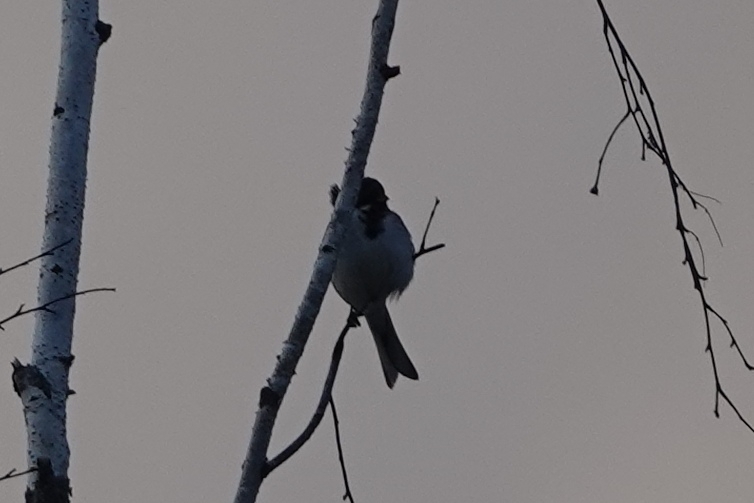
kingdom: Animalia
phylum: Chordata
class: Aves
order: Passeriformes
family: Emberizidae
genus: Emberiza
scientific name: Emberiza schoeniclus
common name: Reed bunting
